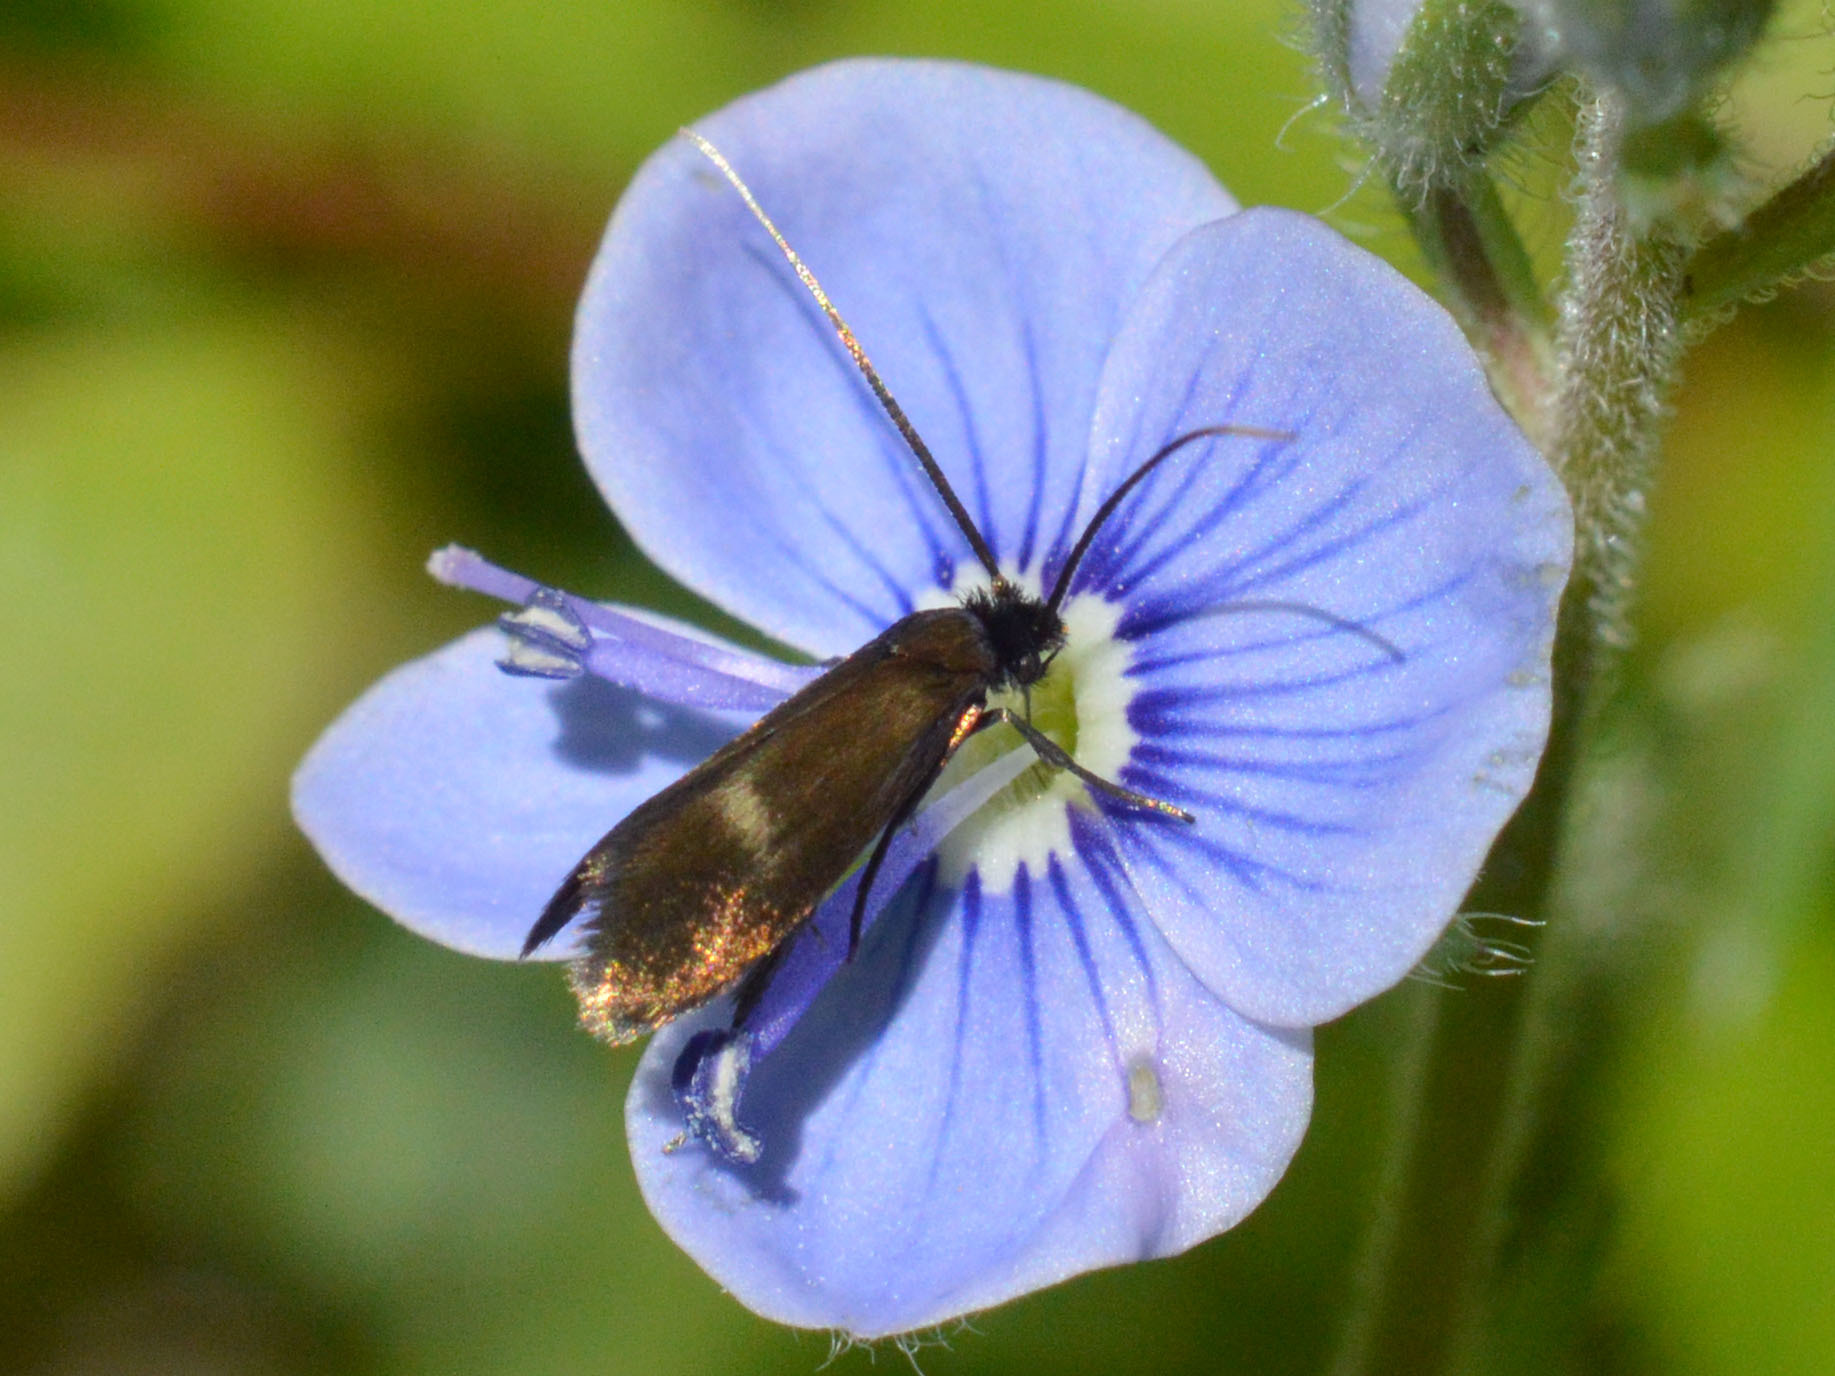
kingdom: Animalia
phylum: Arthropoda
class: Insecta
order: Lepidoptera
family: Adelidae
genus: Cauchas
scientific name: Cauchas fibulella
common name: Little long-horn
